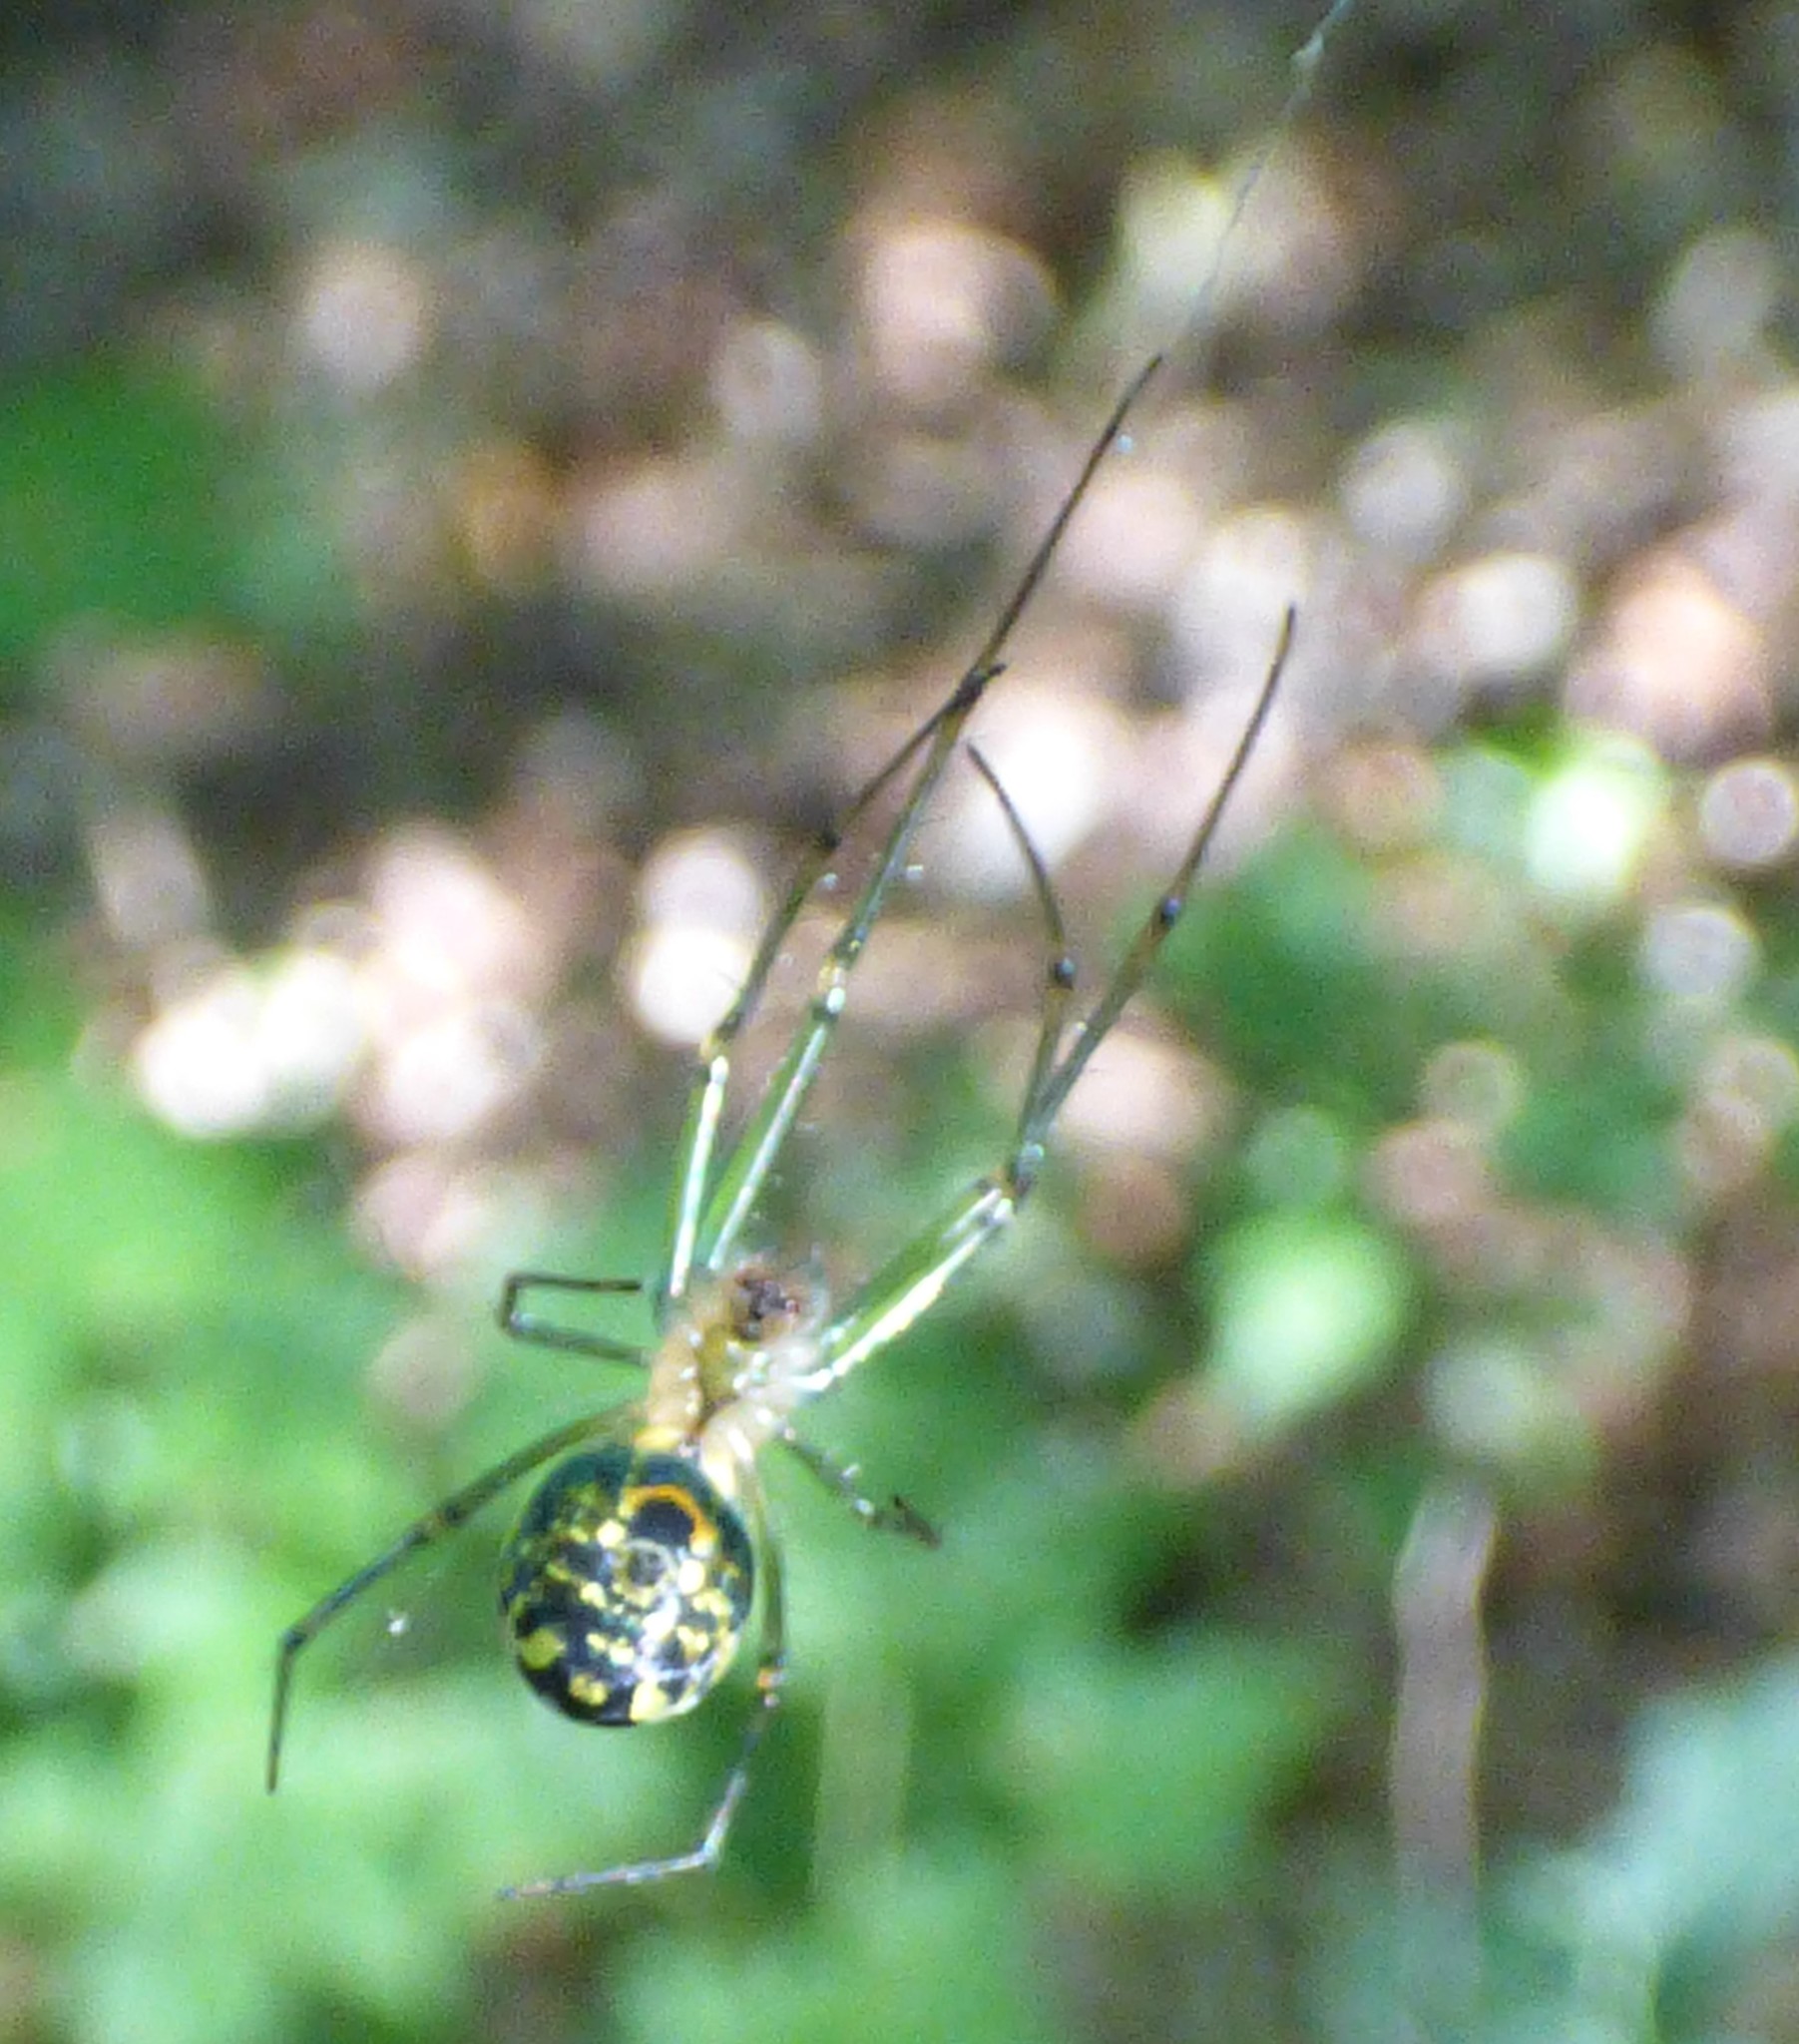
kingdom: Animalia
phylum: Arthropoda
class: Arachnida
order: Araneae
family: Tetragnathidae
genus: Leucauge
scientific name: Leucauge venusta
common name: Longjawed orb weavers
